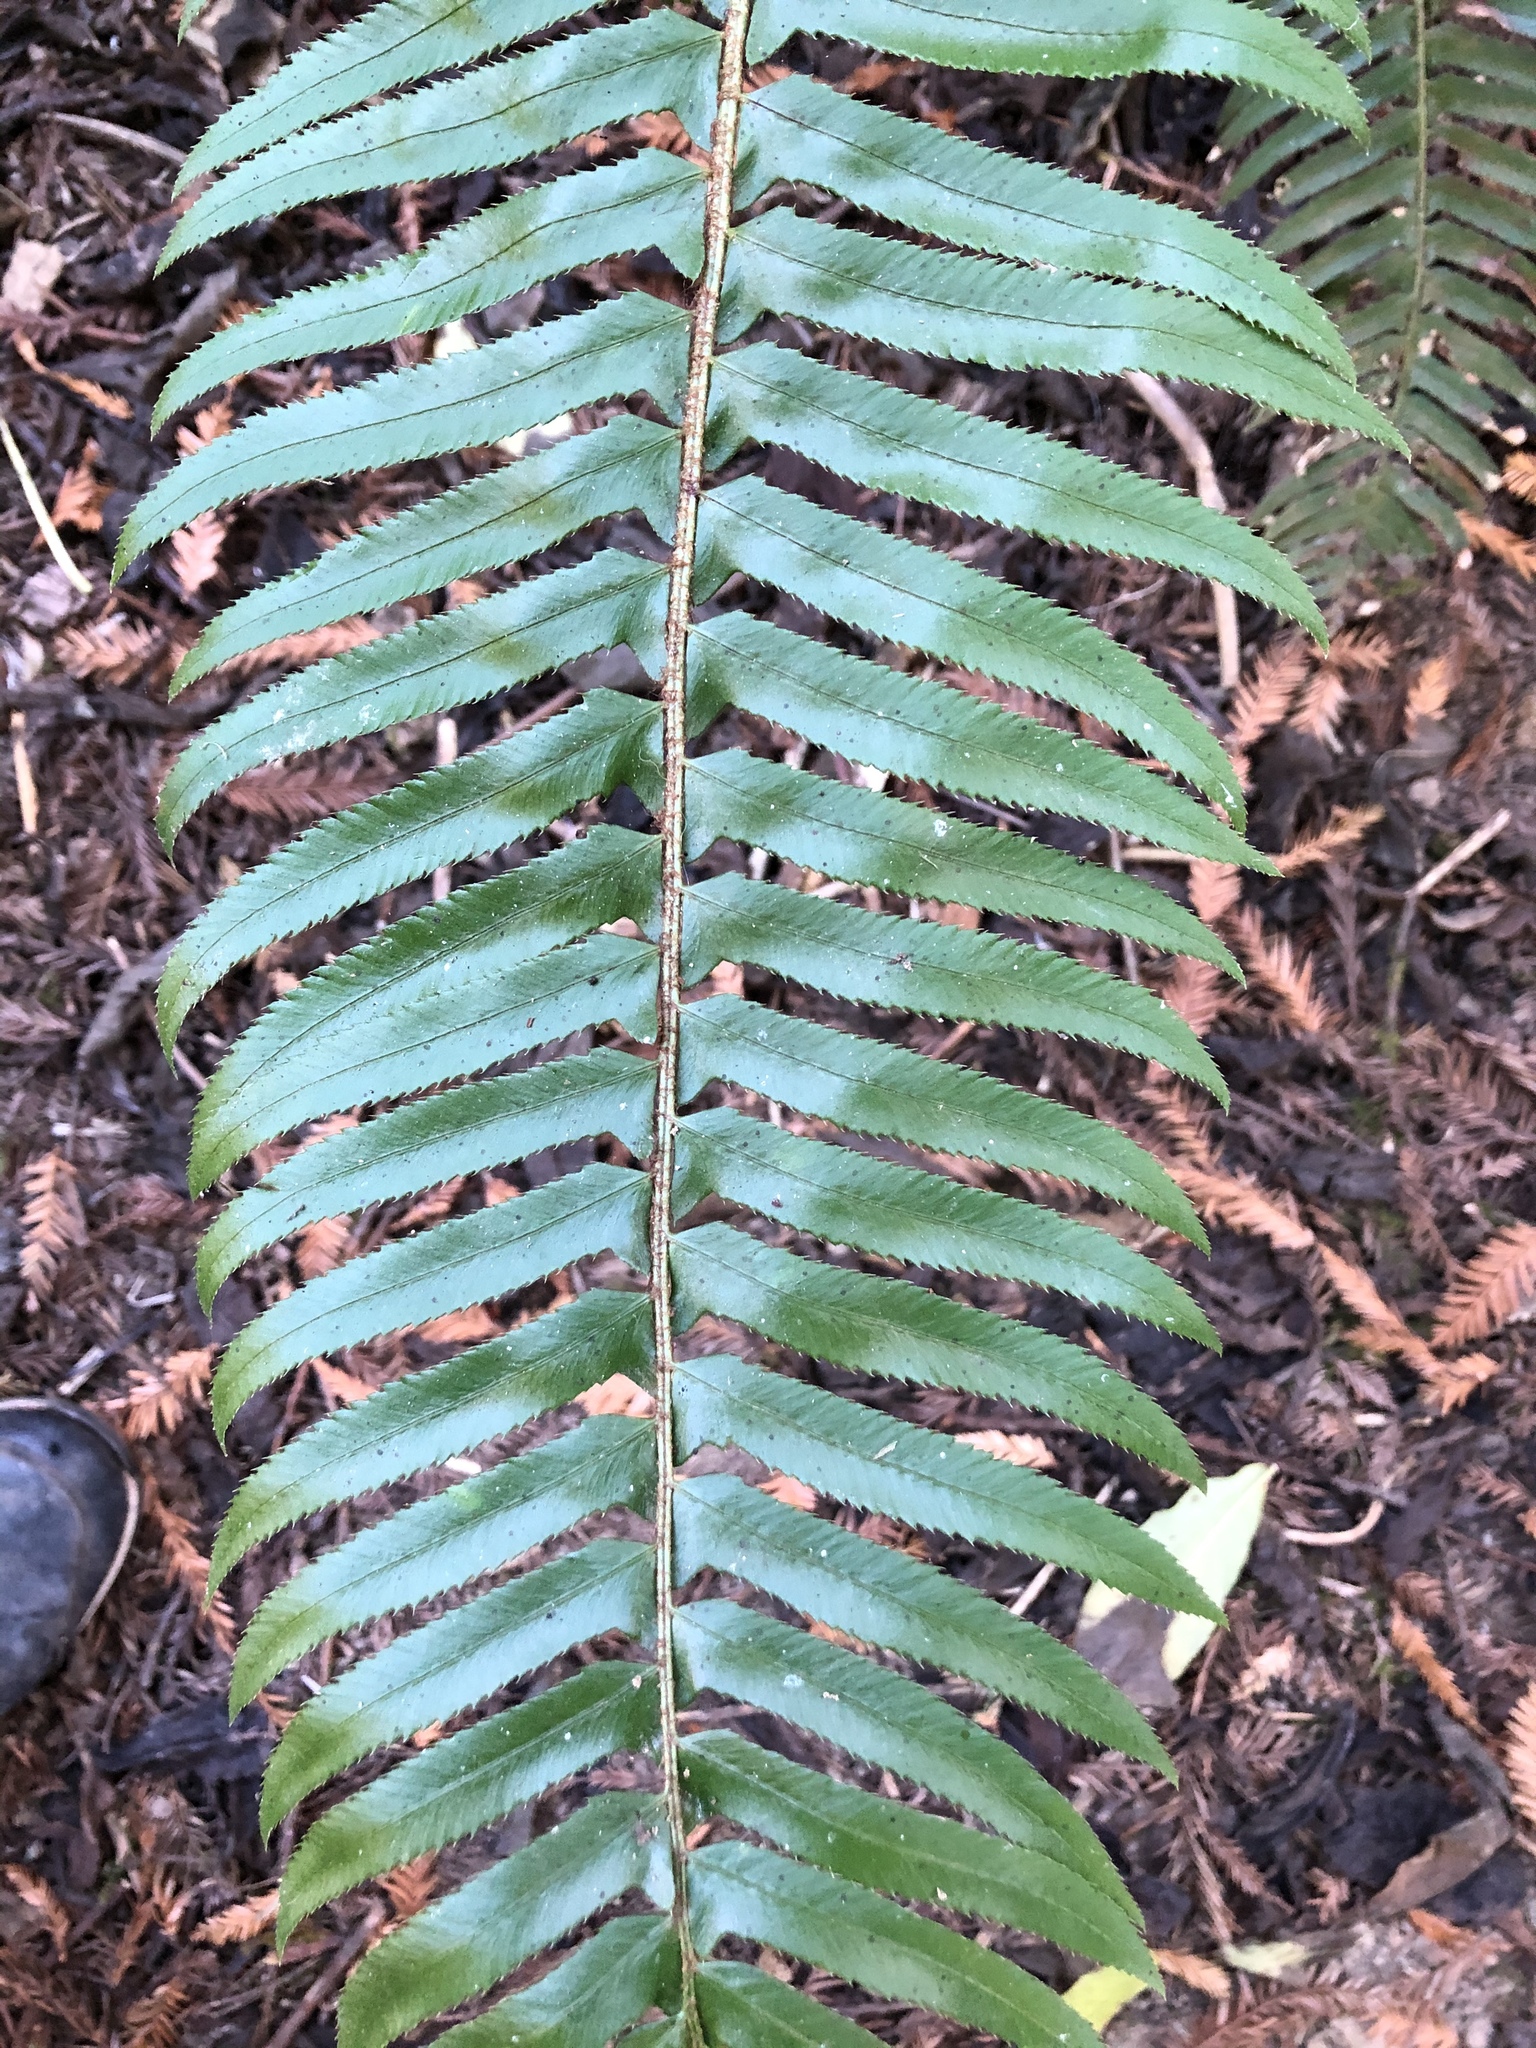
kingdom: Plantae
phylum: Tracheophyta
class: Polypodiopsida
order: Polypodiales
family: Dryopteridaceae
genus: Polystichum
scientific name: Polystichum munitum
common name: Western sword-fern
